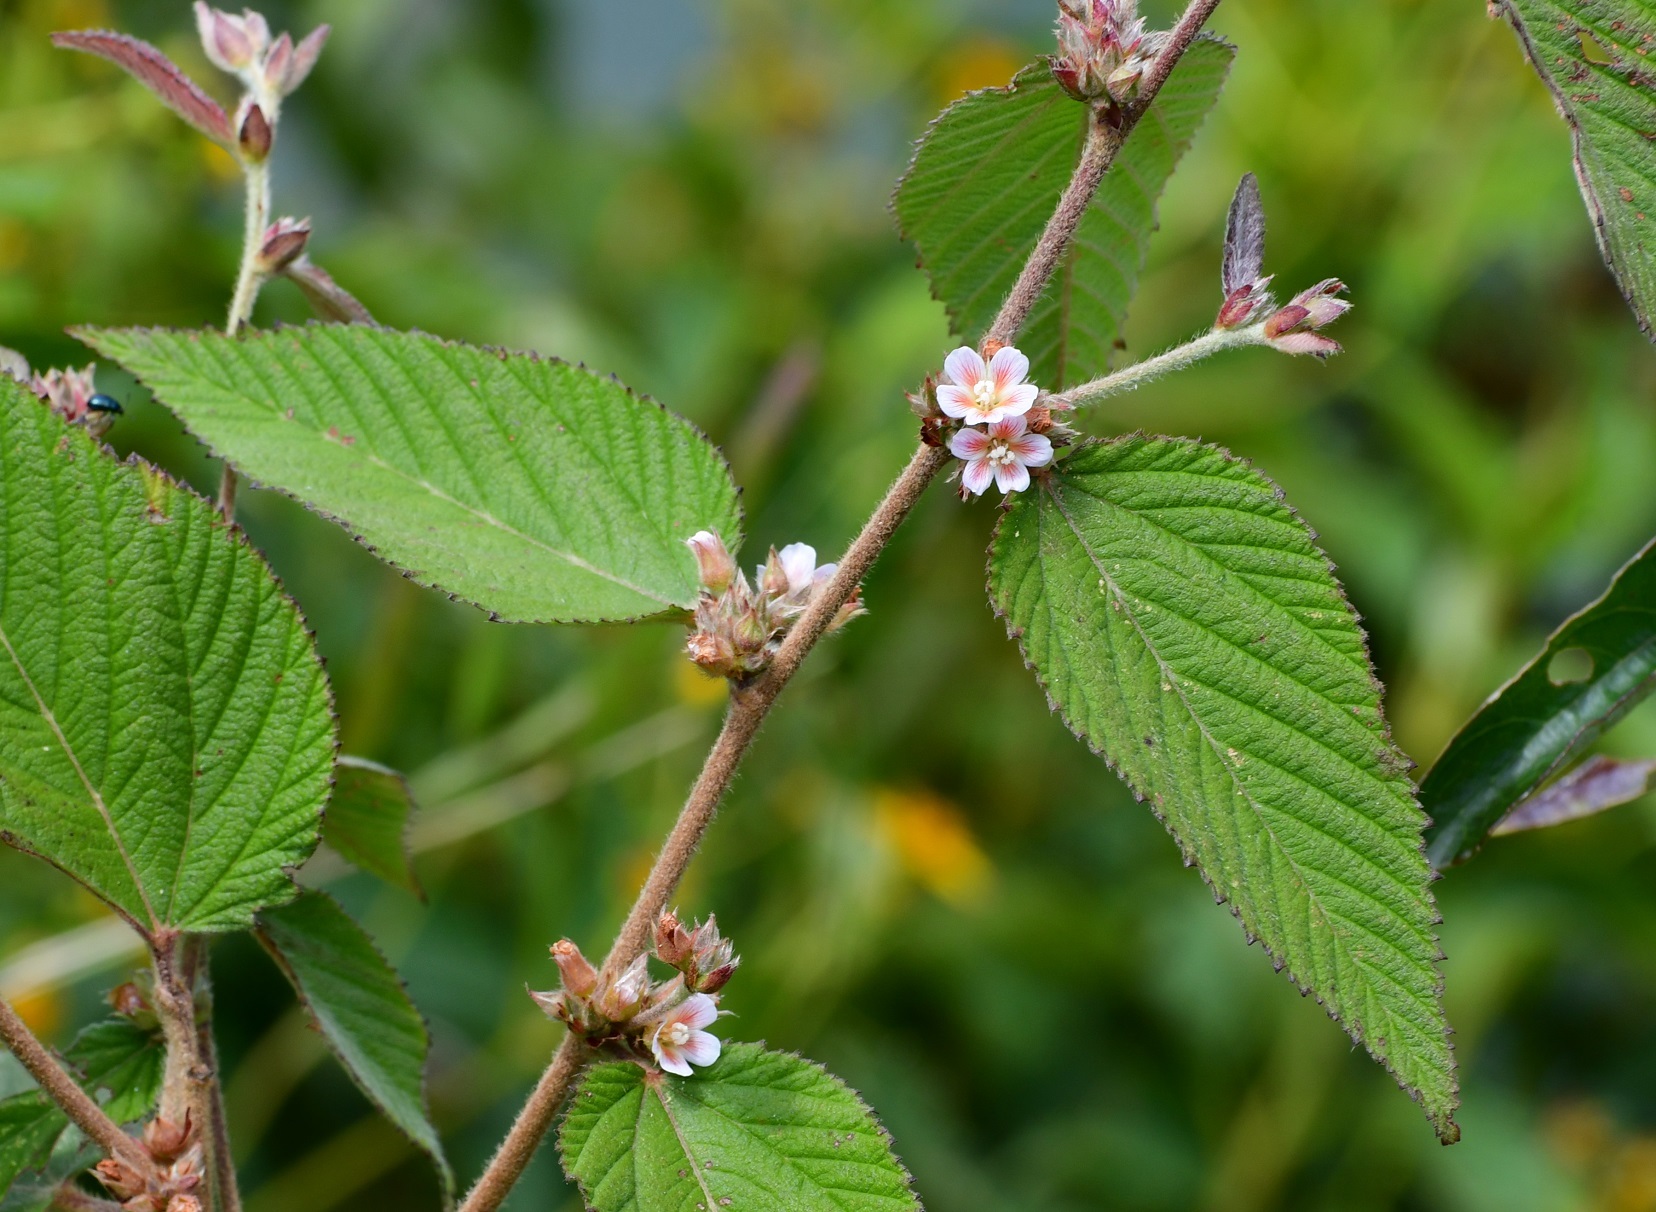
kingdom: Plantae
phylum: Tracheophyta
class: Magnoliopsida
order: Malvales
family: Malvaceae
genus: Melochia
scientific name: Melochia nodiflora
